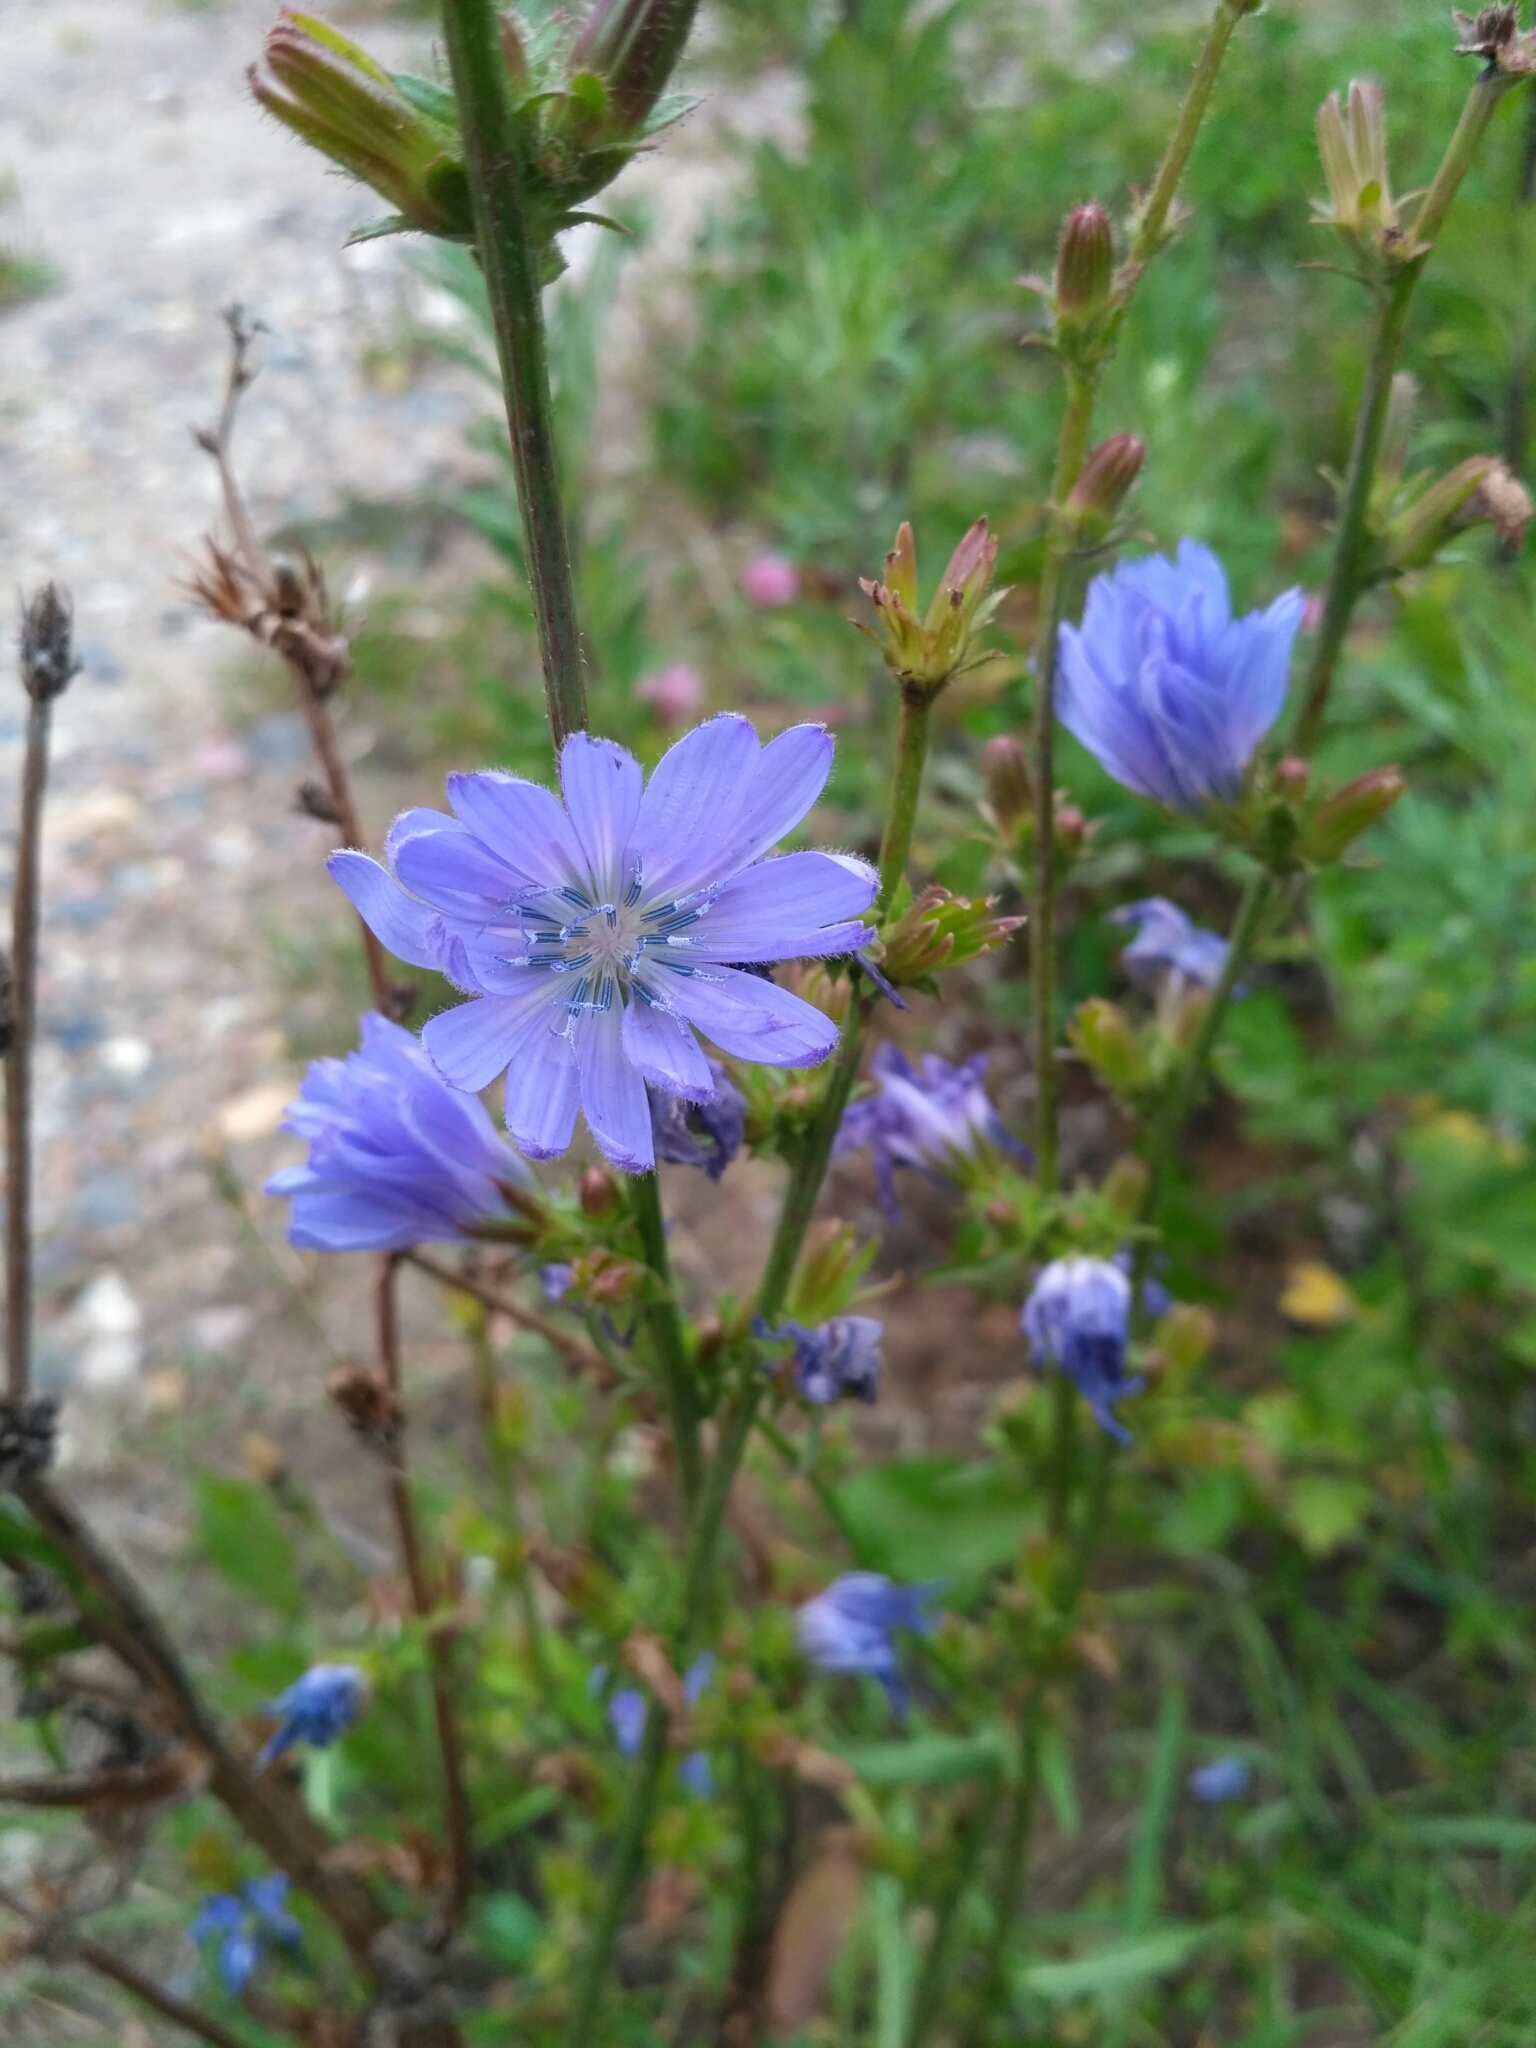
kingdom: Plantae
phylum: Tracheophyta
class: Magnoliopsida
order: Asterales
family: Asteraceae
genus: Cichorium
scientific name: Cichorium intybus
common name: Chicory
